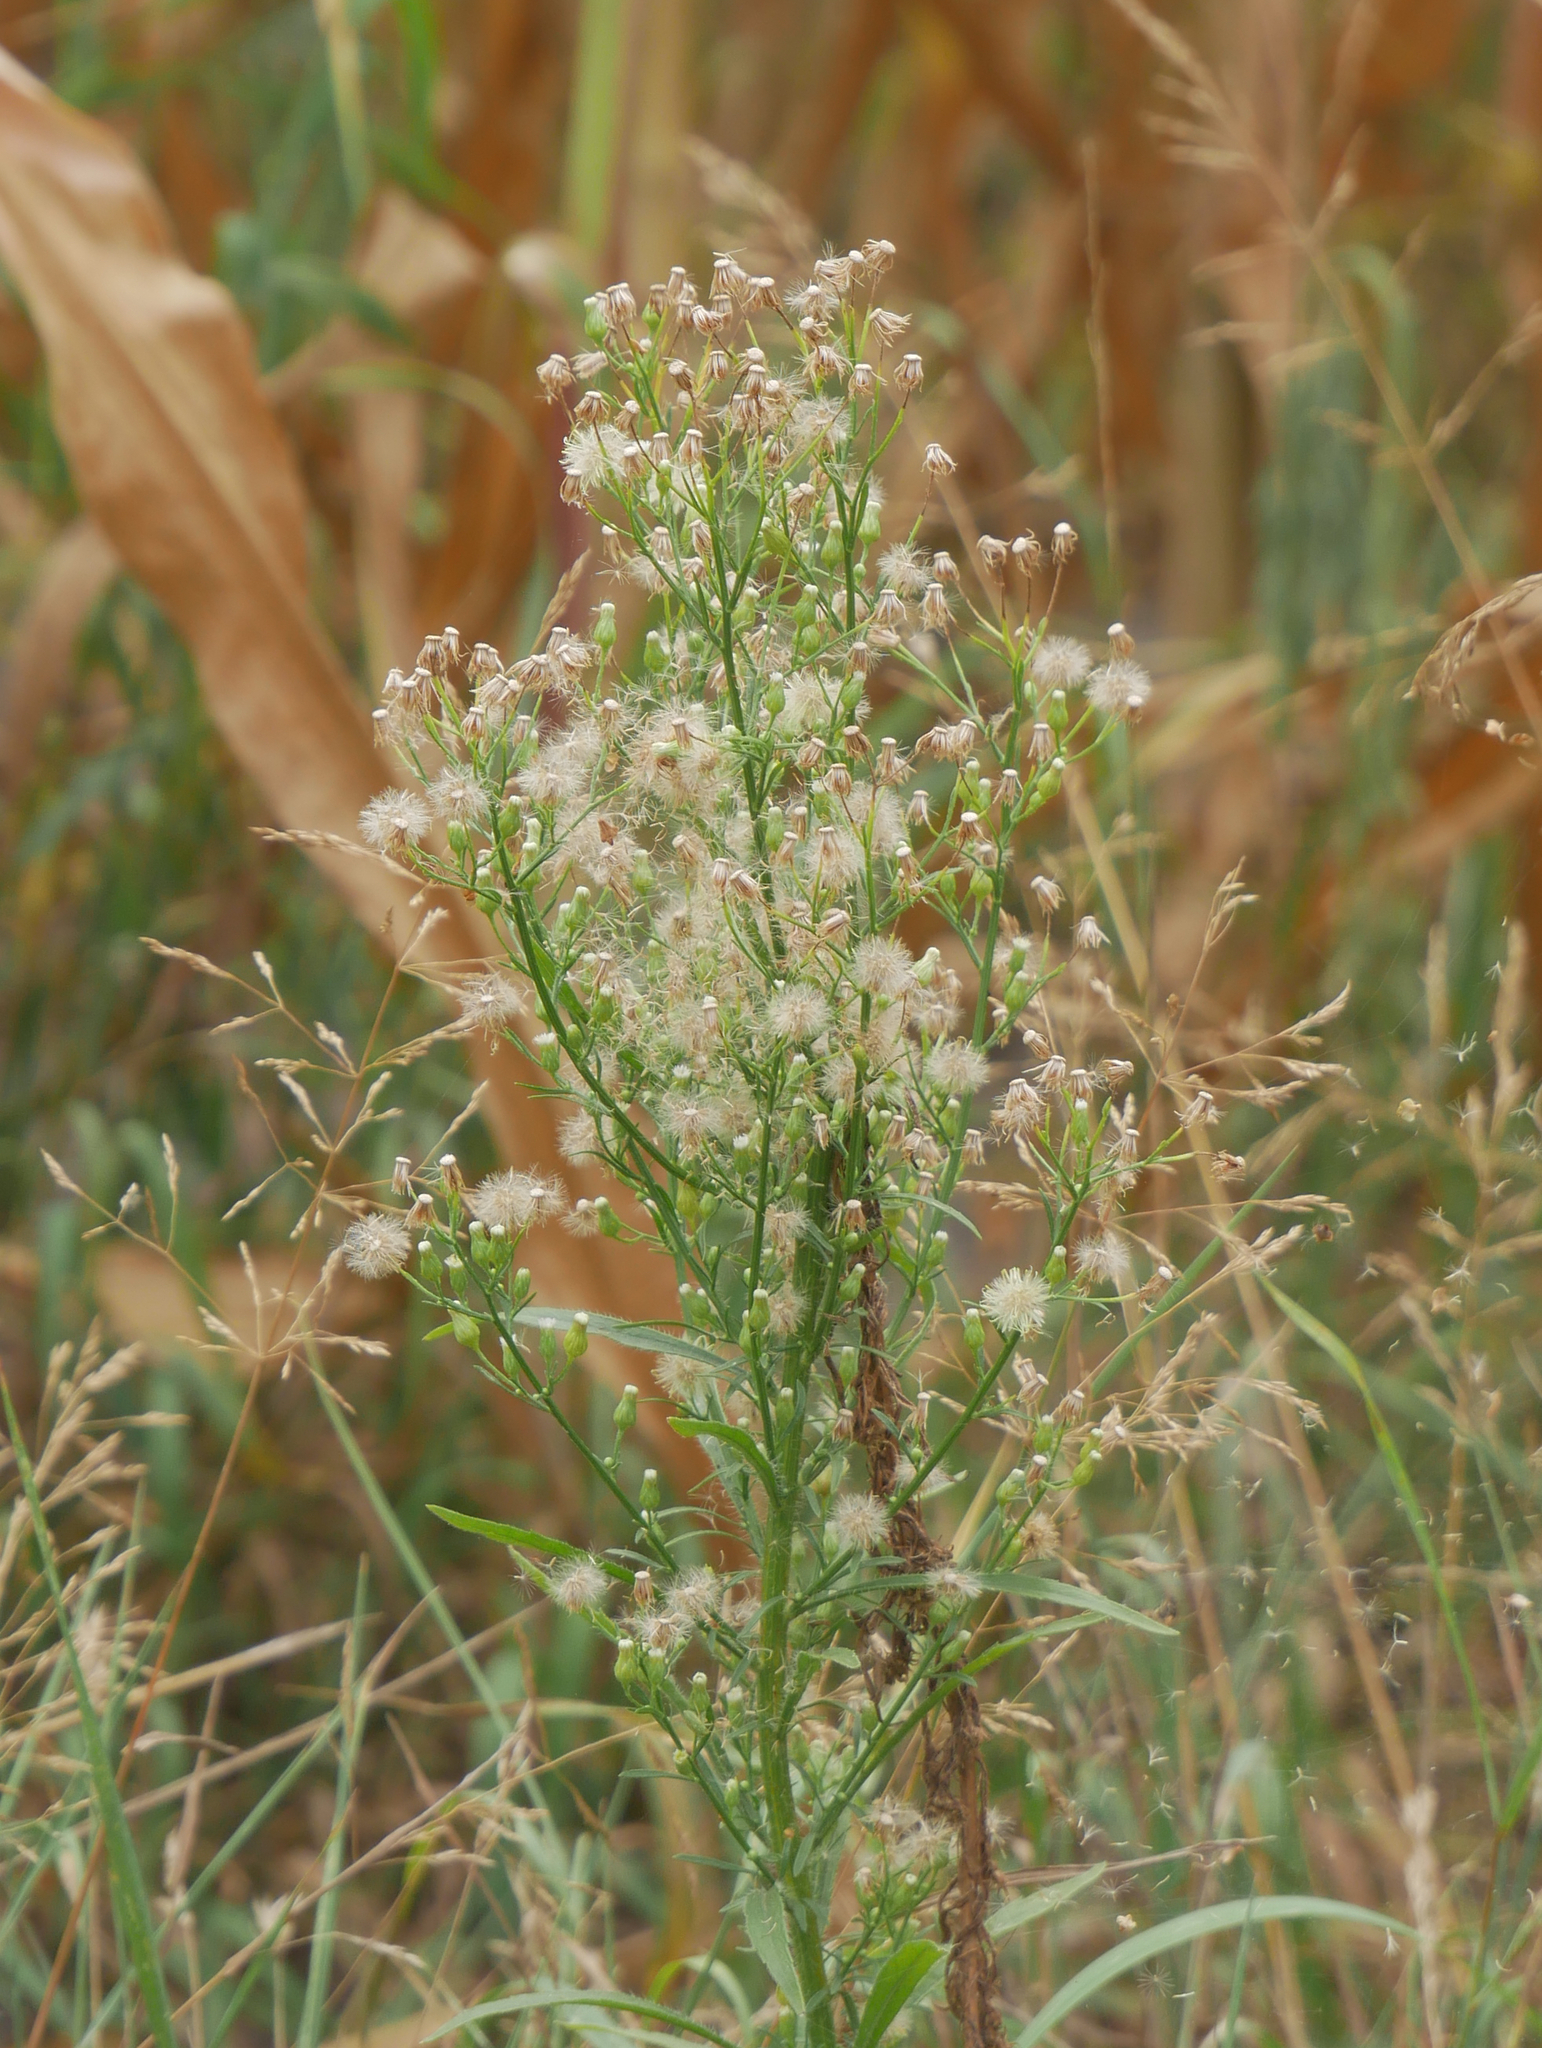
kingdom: Plantae
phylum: Tracheophyta
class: Magnoliopsida
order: Asterales
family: Asteraceae
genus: Erigeron
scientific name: Erigeron canadensis
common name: Canadian fleabane
